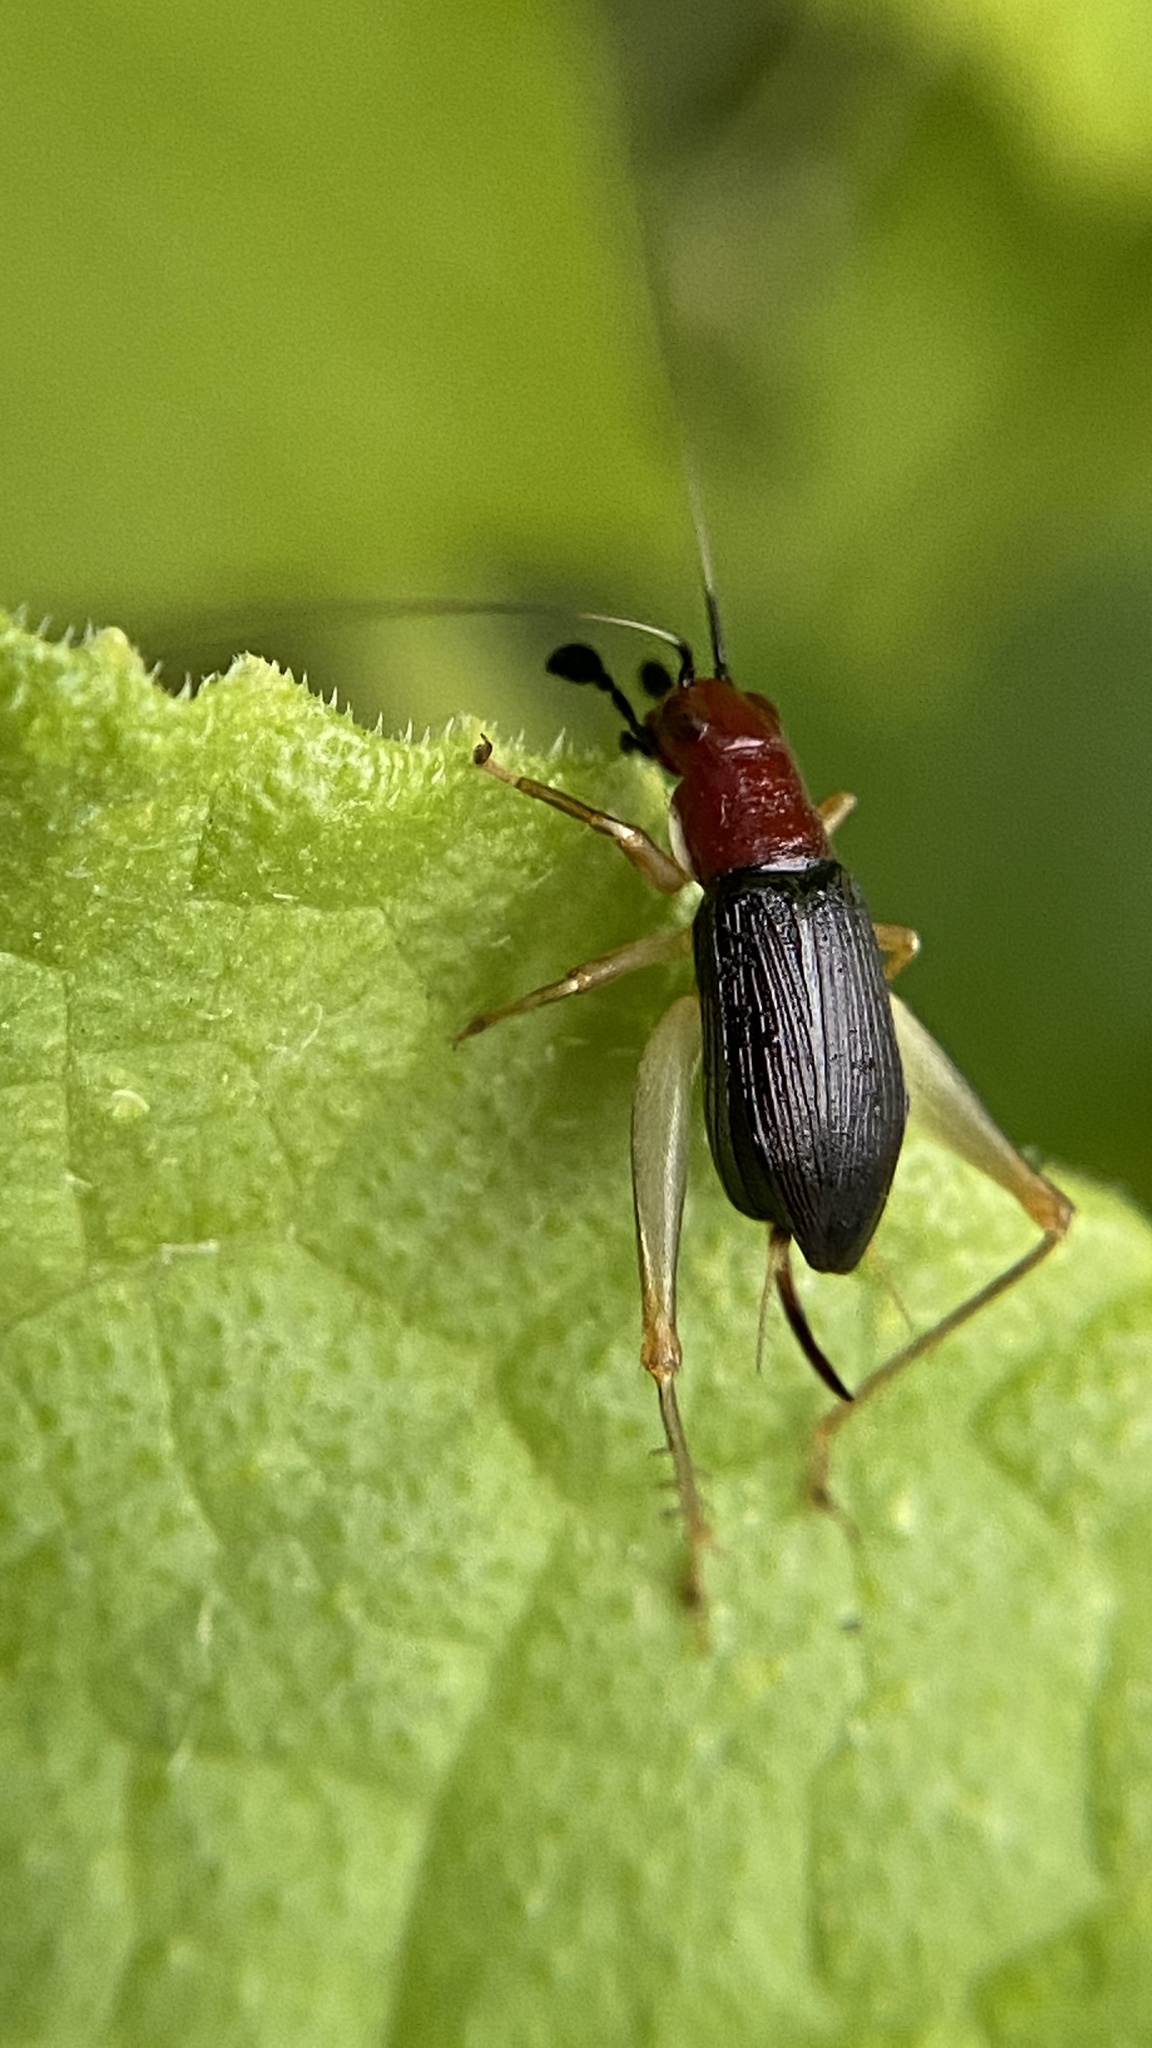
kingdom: Animalia
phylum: Arthropoda
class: Insecta
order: Orthoptera
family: Trigonidiidae
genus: Phyllopalpus
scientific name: Phyllopalpus pulchellus
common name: Handsome trig
